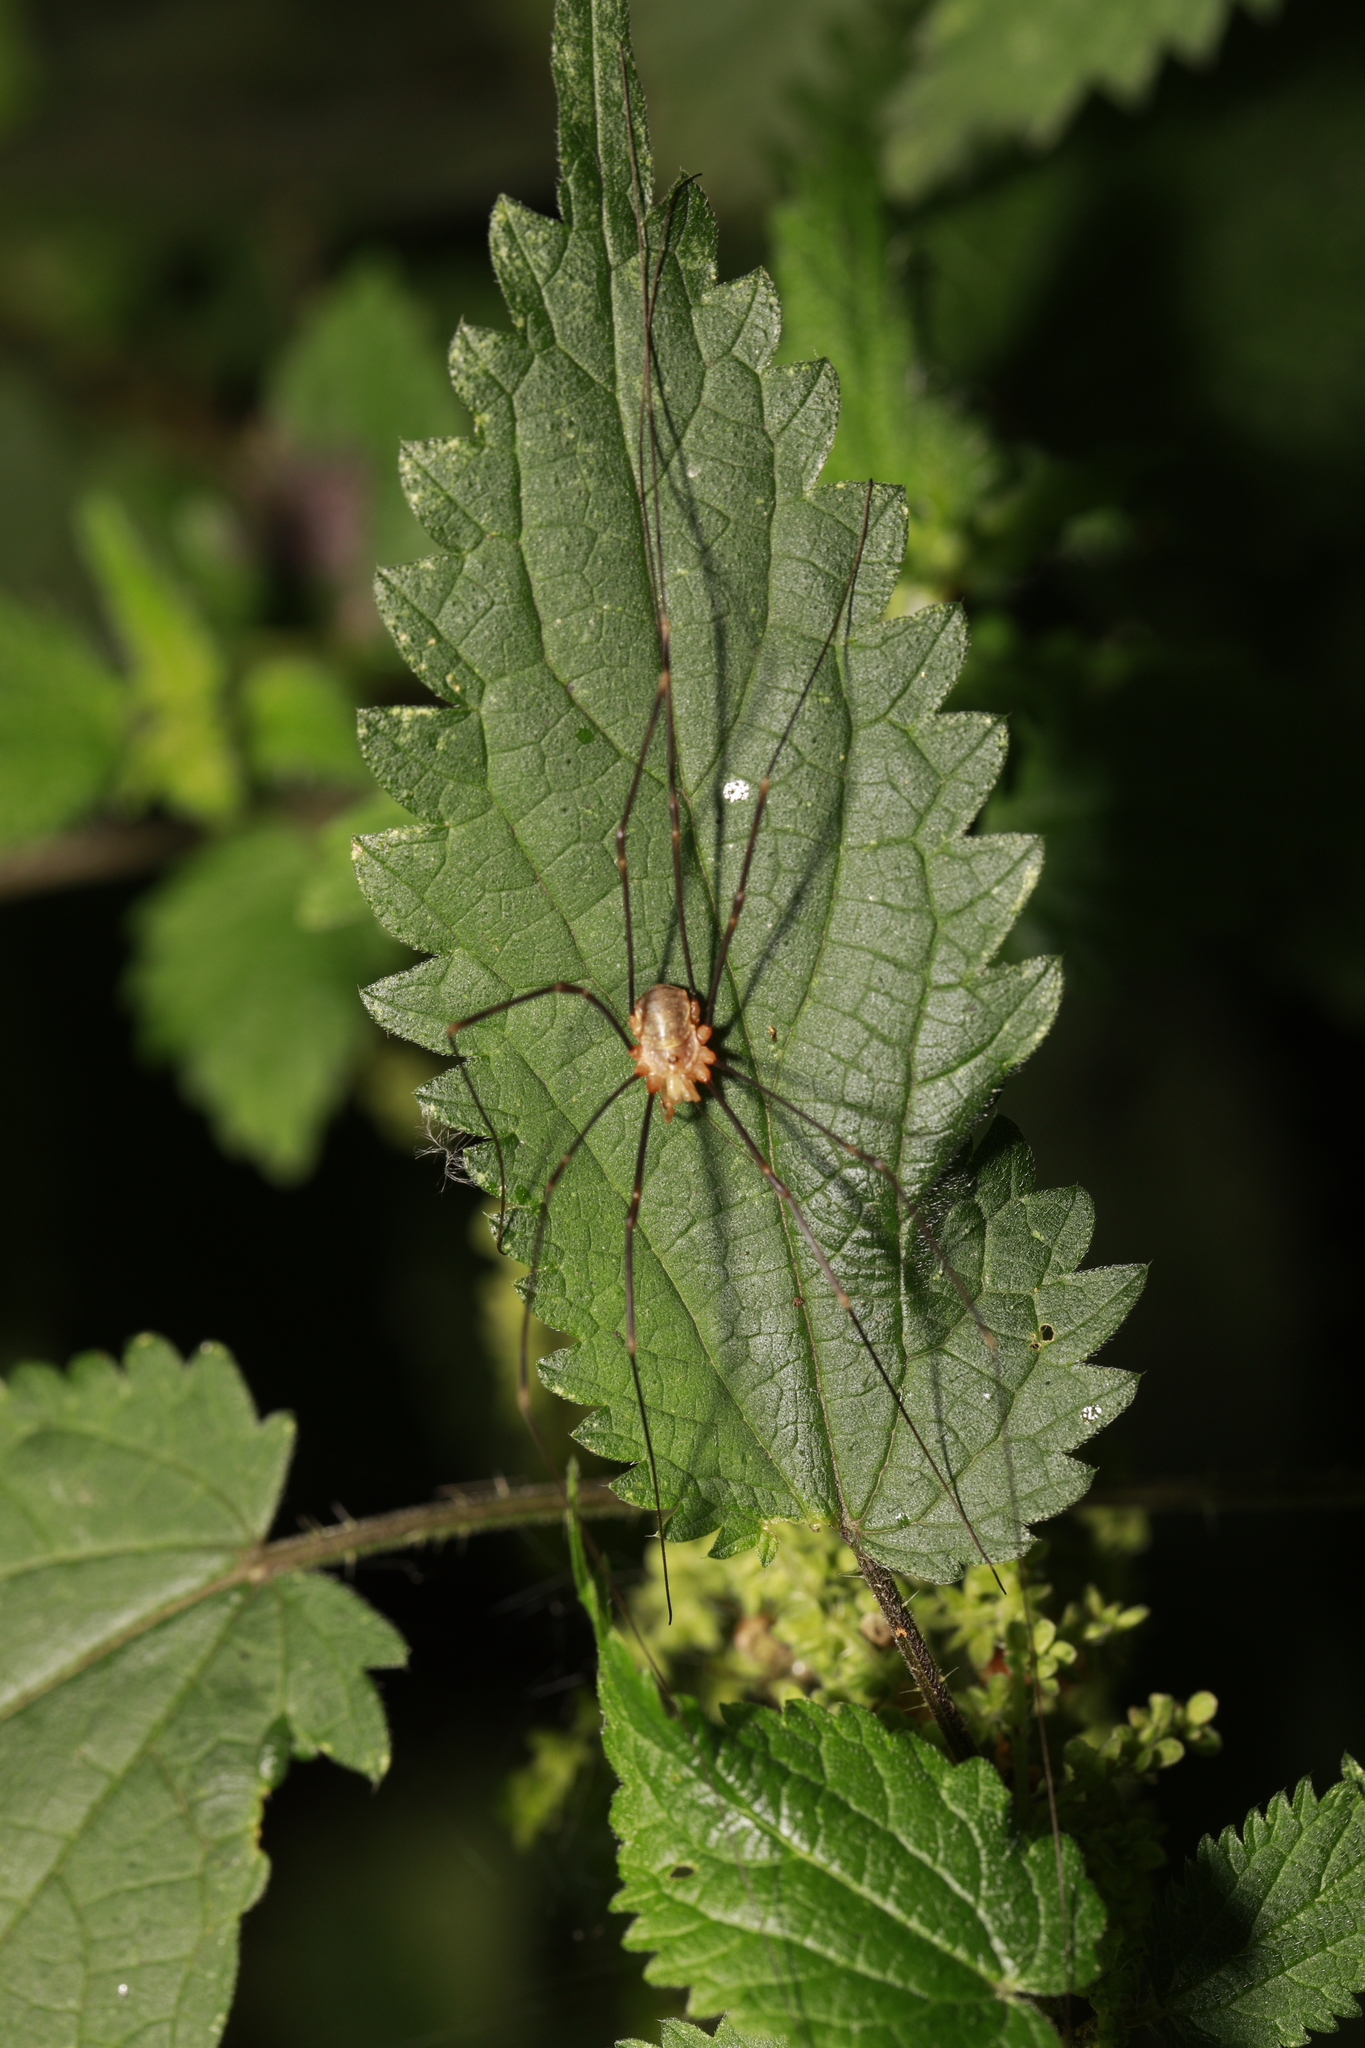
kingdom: Animalia
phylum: Arthropoda
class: Arachnida
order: Opiliones
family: Phalangiidae
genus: Opilio
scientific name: Opilio canestrinii
